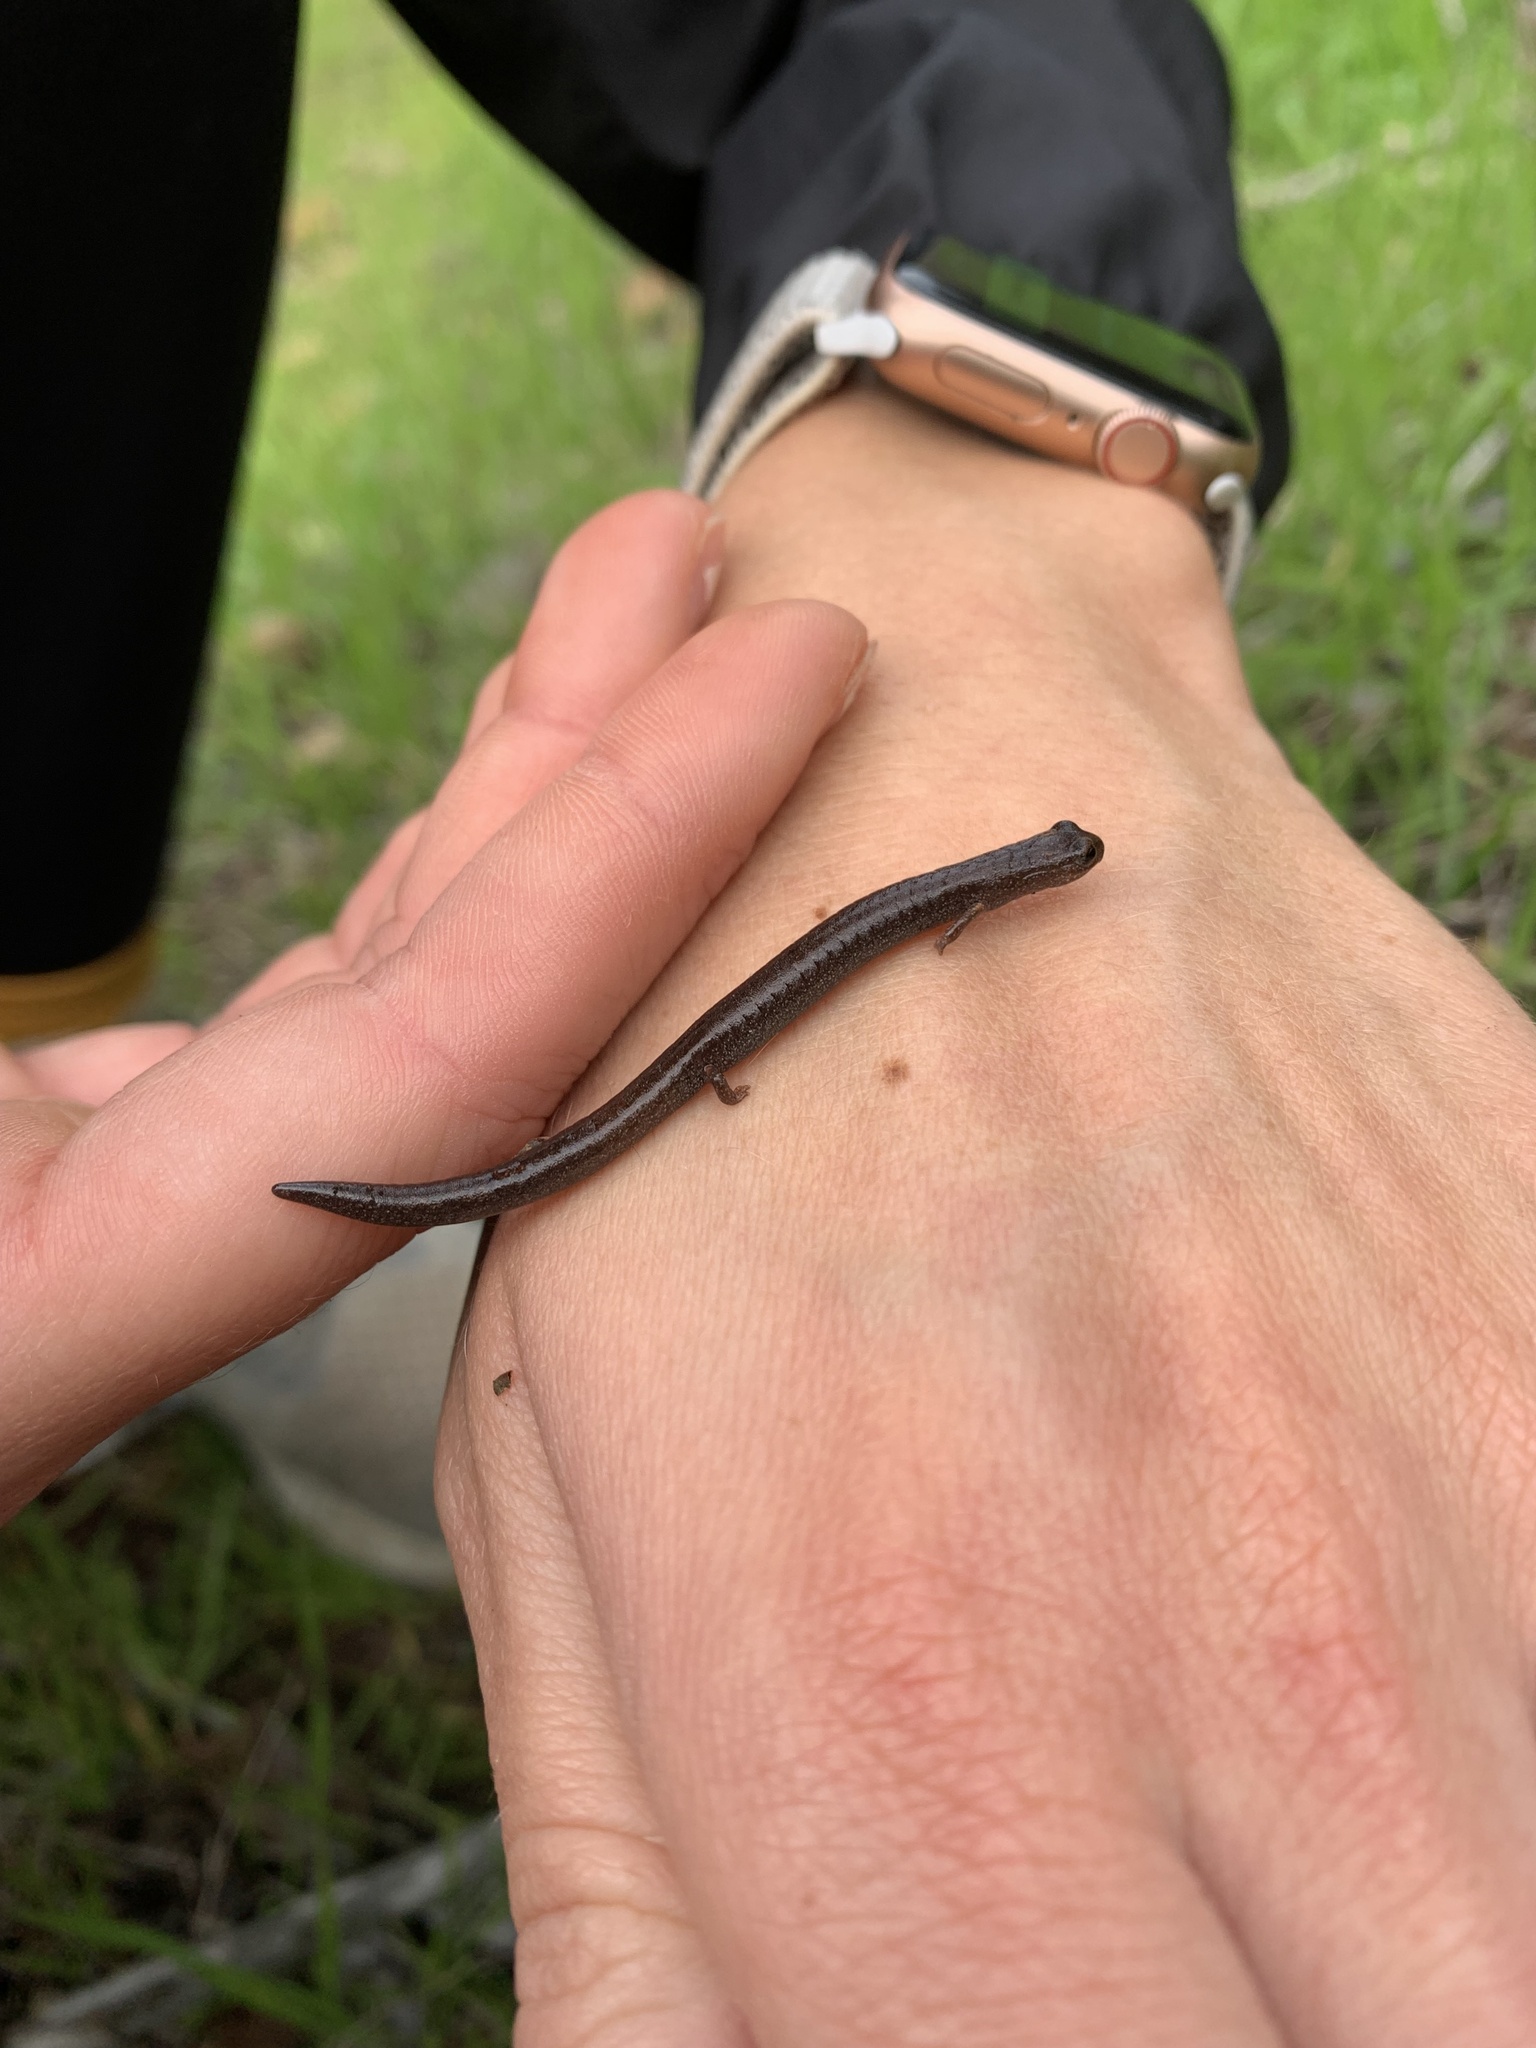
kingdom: Animalia
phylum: Chordata
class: Amphibia
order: Caudata
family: Plethodontidae
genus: Batrachoseps
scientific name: Batrachoseps major
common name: Garden slender salamander
